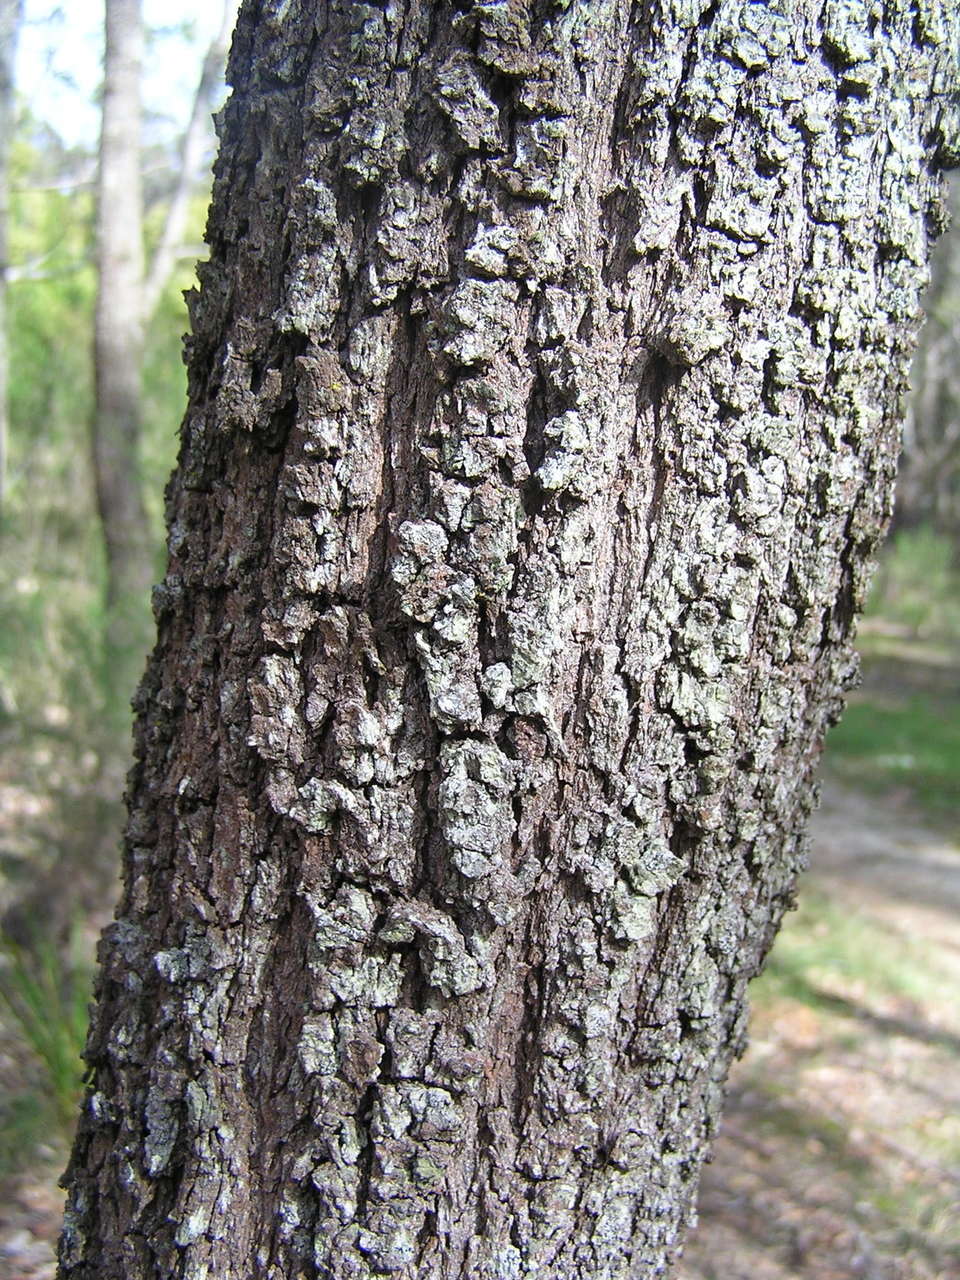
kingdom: Plantae
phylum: Tracheophyta
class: Magnoliopsida
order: Fabales
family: Fabaceae
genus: Acacia
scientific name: Acacia melanoxylon
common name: Blackwood
